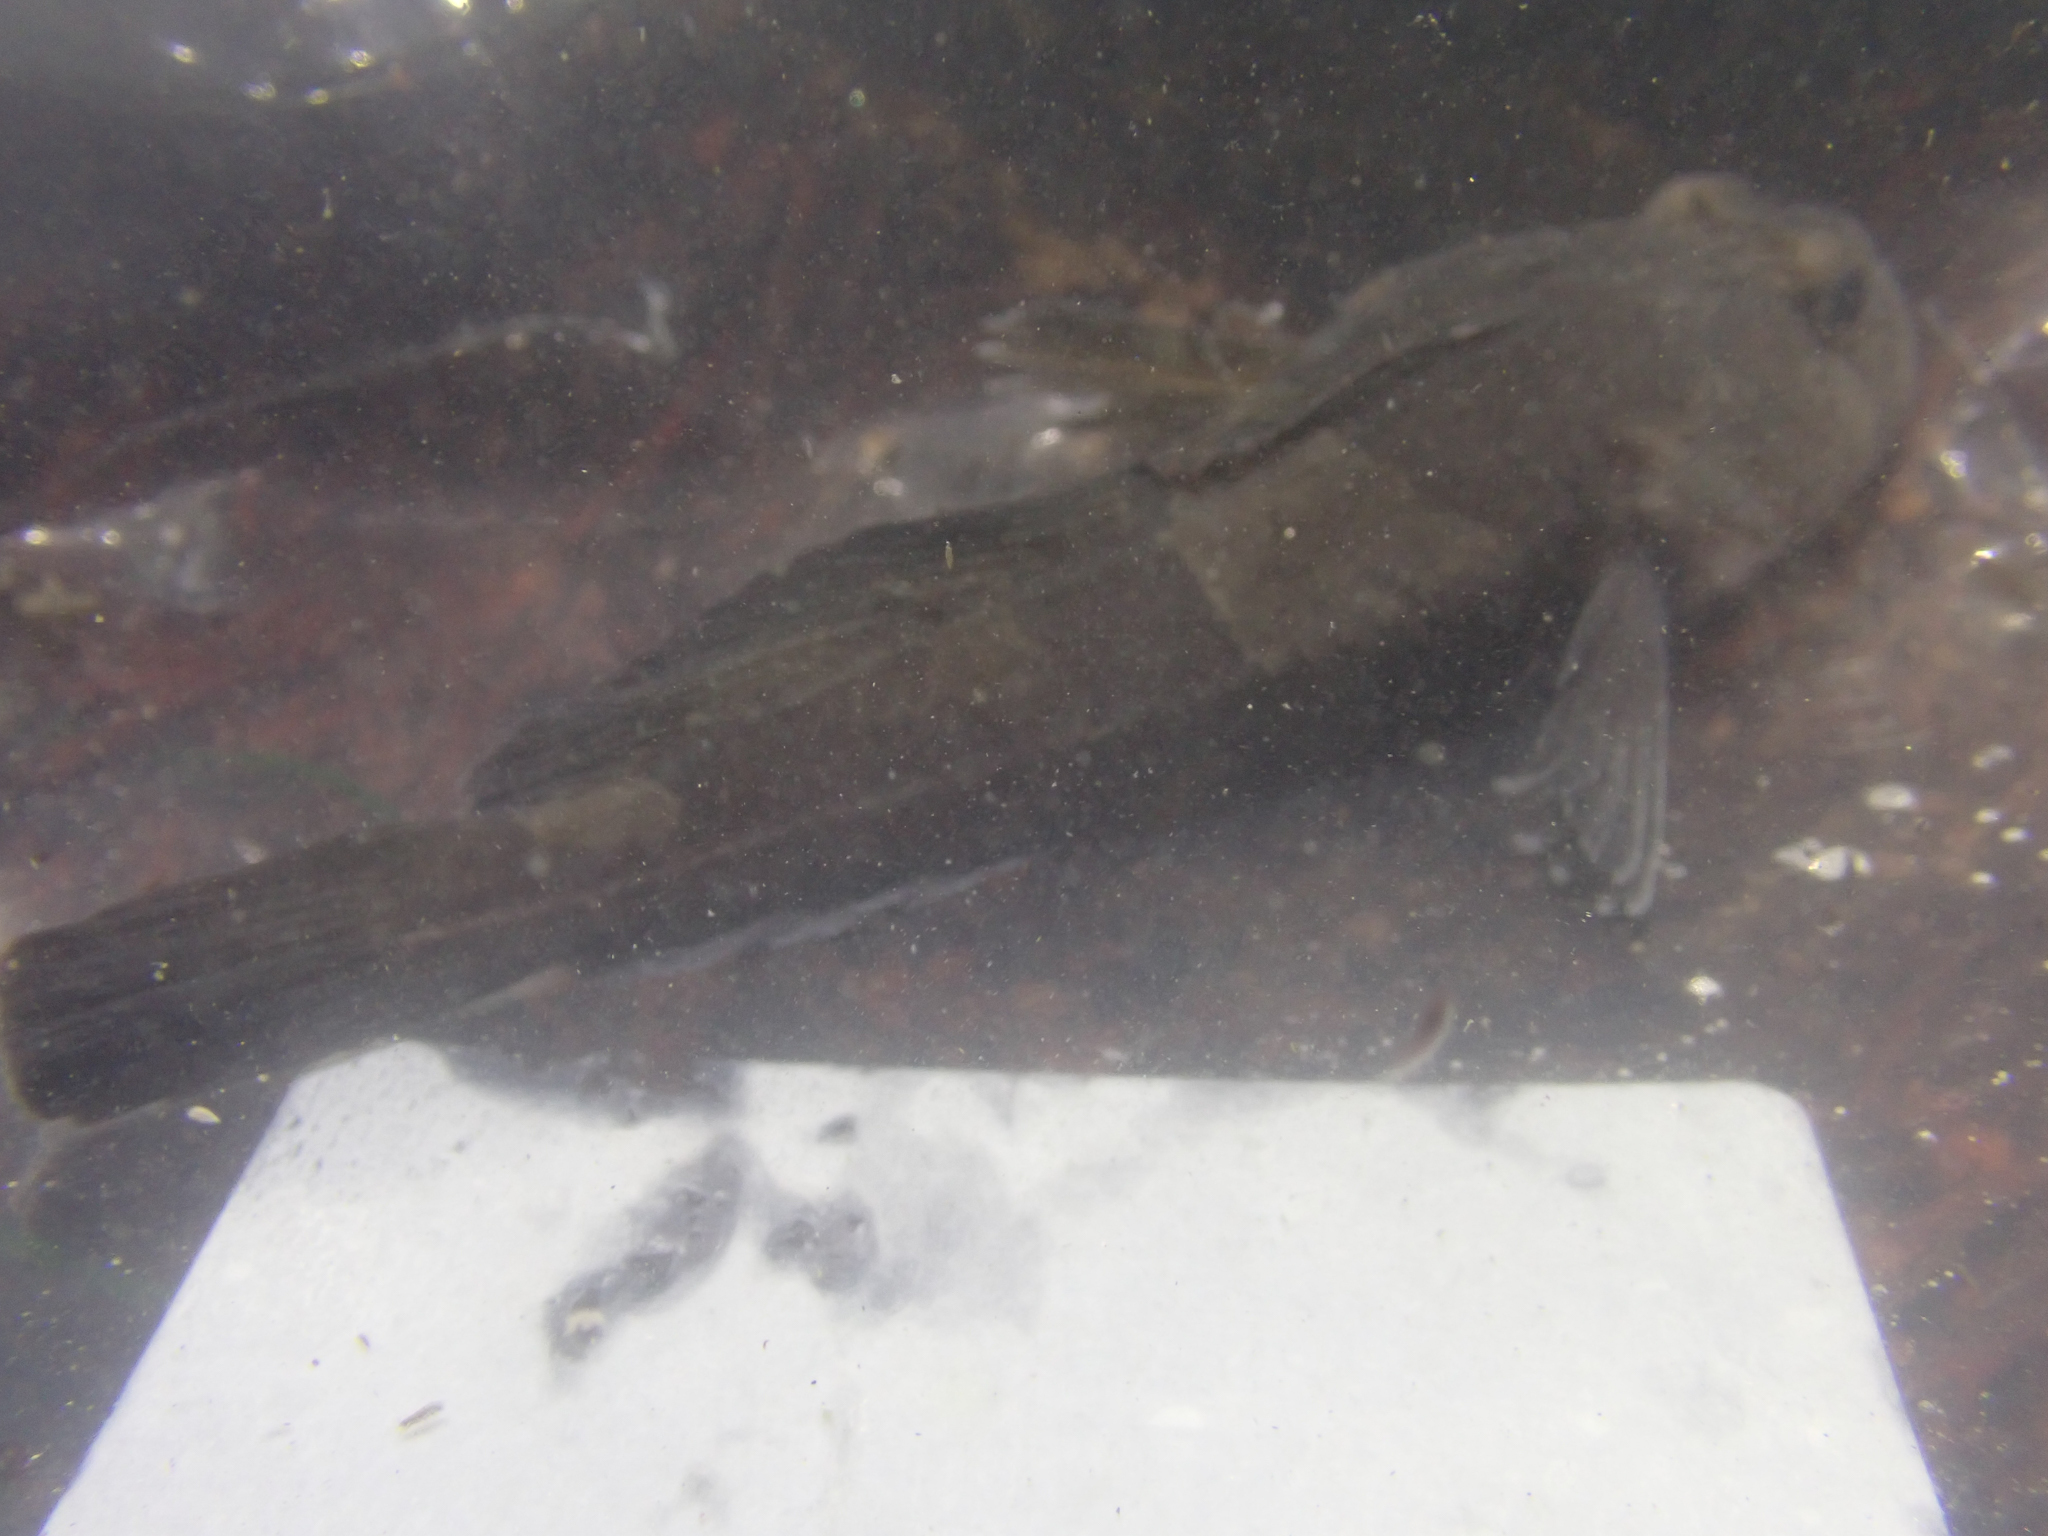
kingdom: Animalia
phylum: Chordata
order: Scorpaeniformes
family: Cottidae
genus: Ascelichthys
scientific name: Ascelichthys rhodorus
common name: Rosylip sculpin
